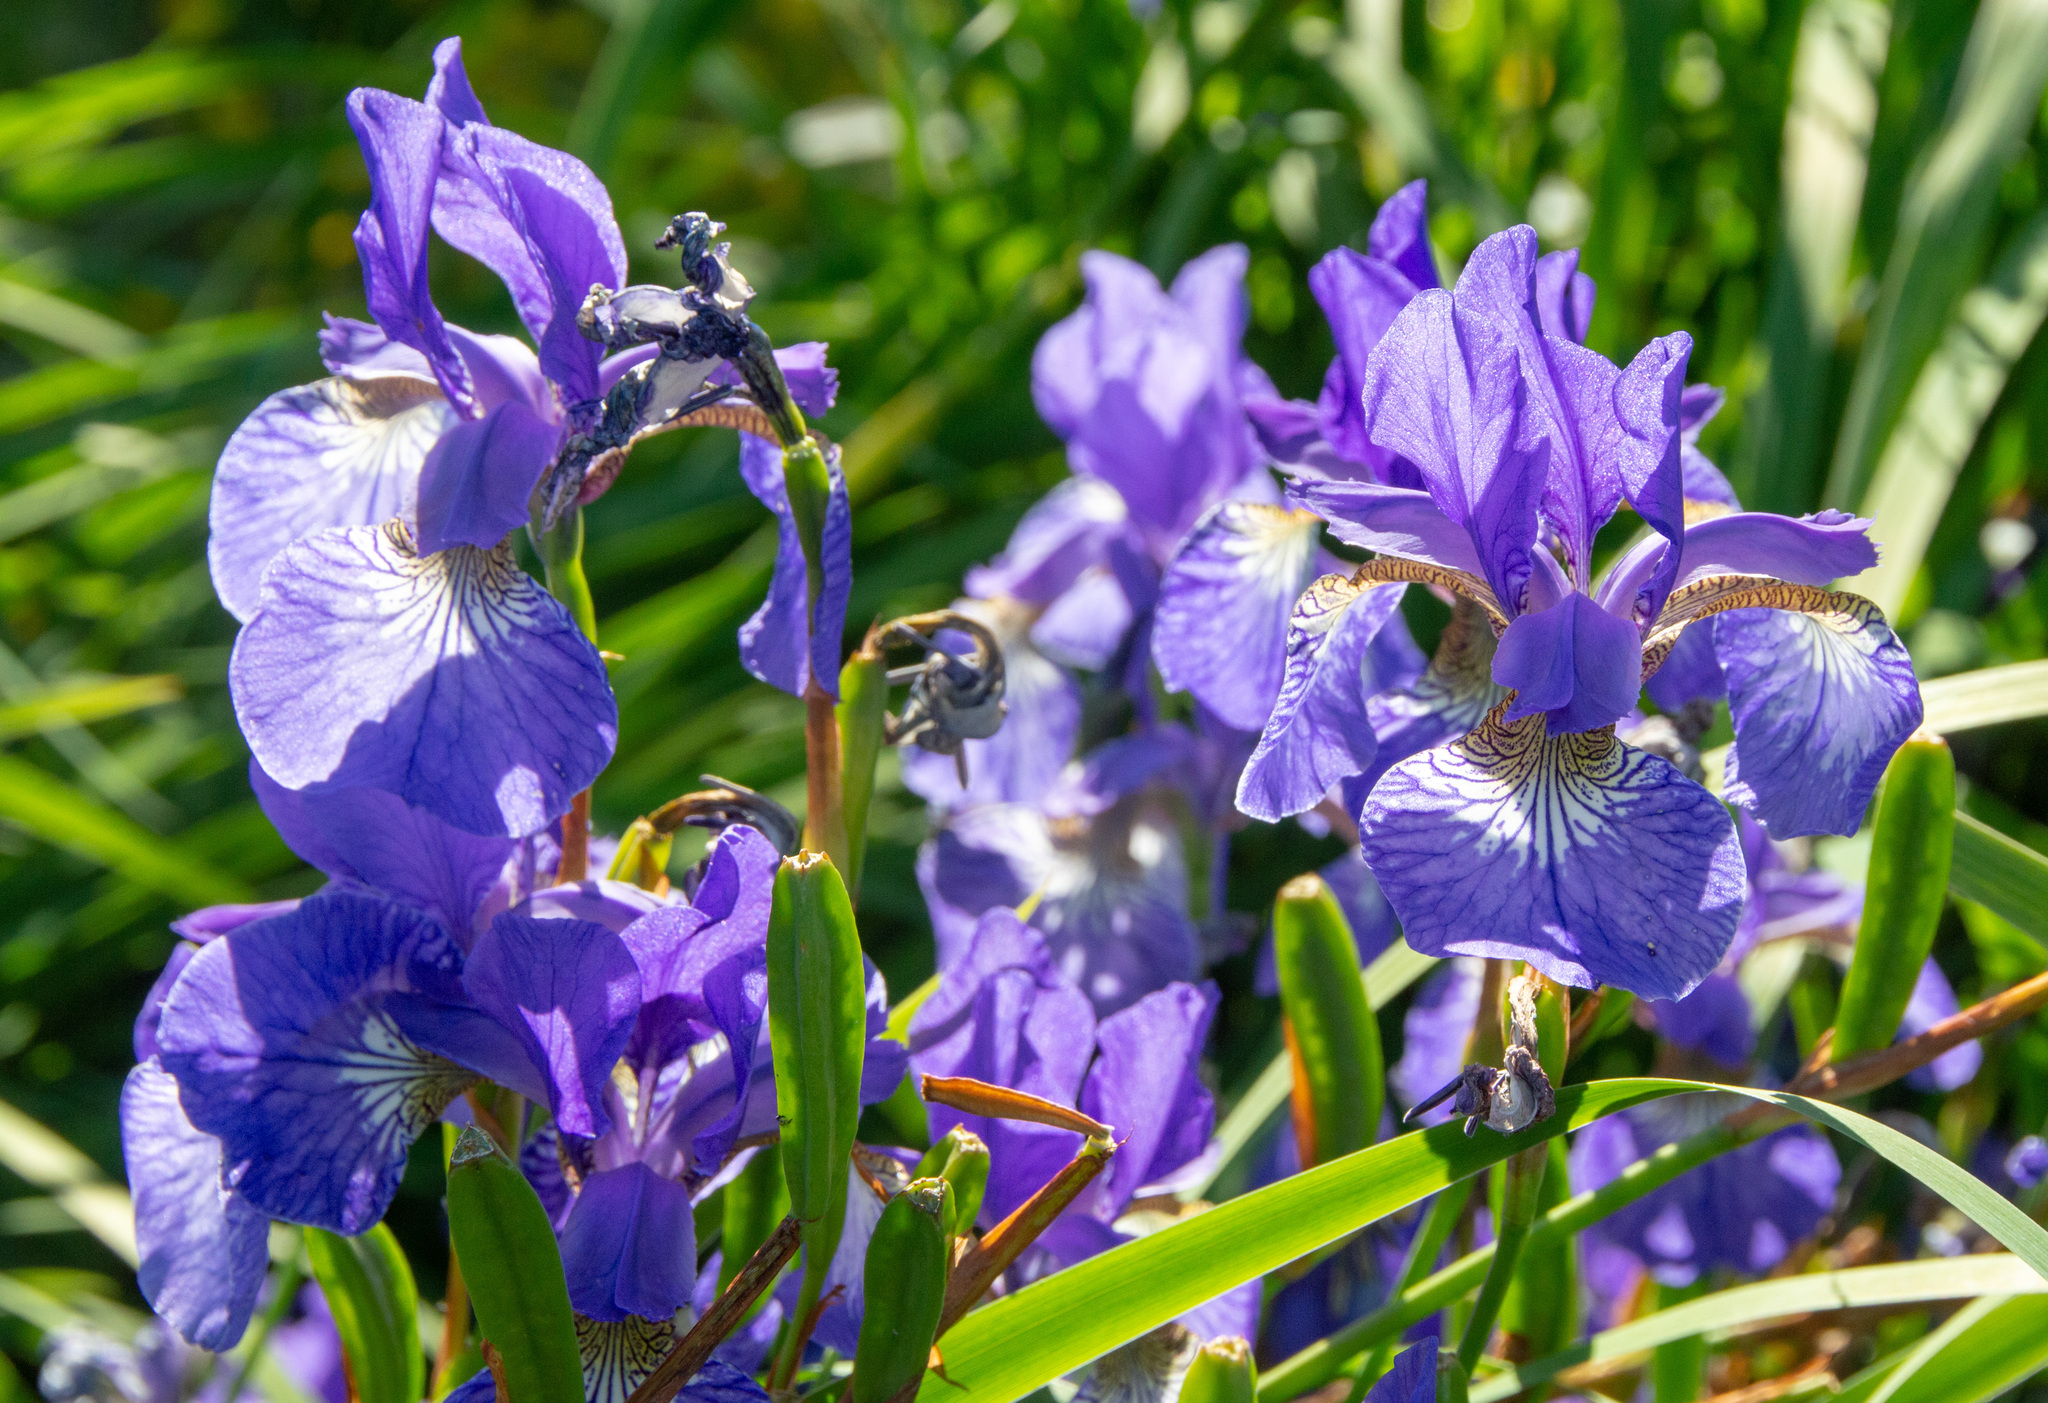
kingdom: Plantae
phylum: Tracheophyta
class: Liliopsida
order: Asparagales
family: Iridaceae
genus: Iris
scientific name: Iris sanguinea
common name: Blood iris
